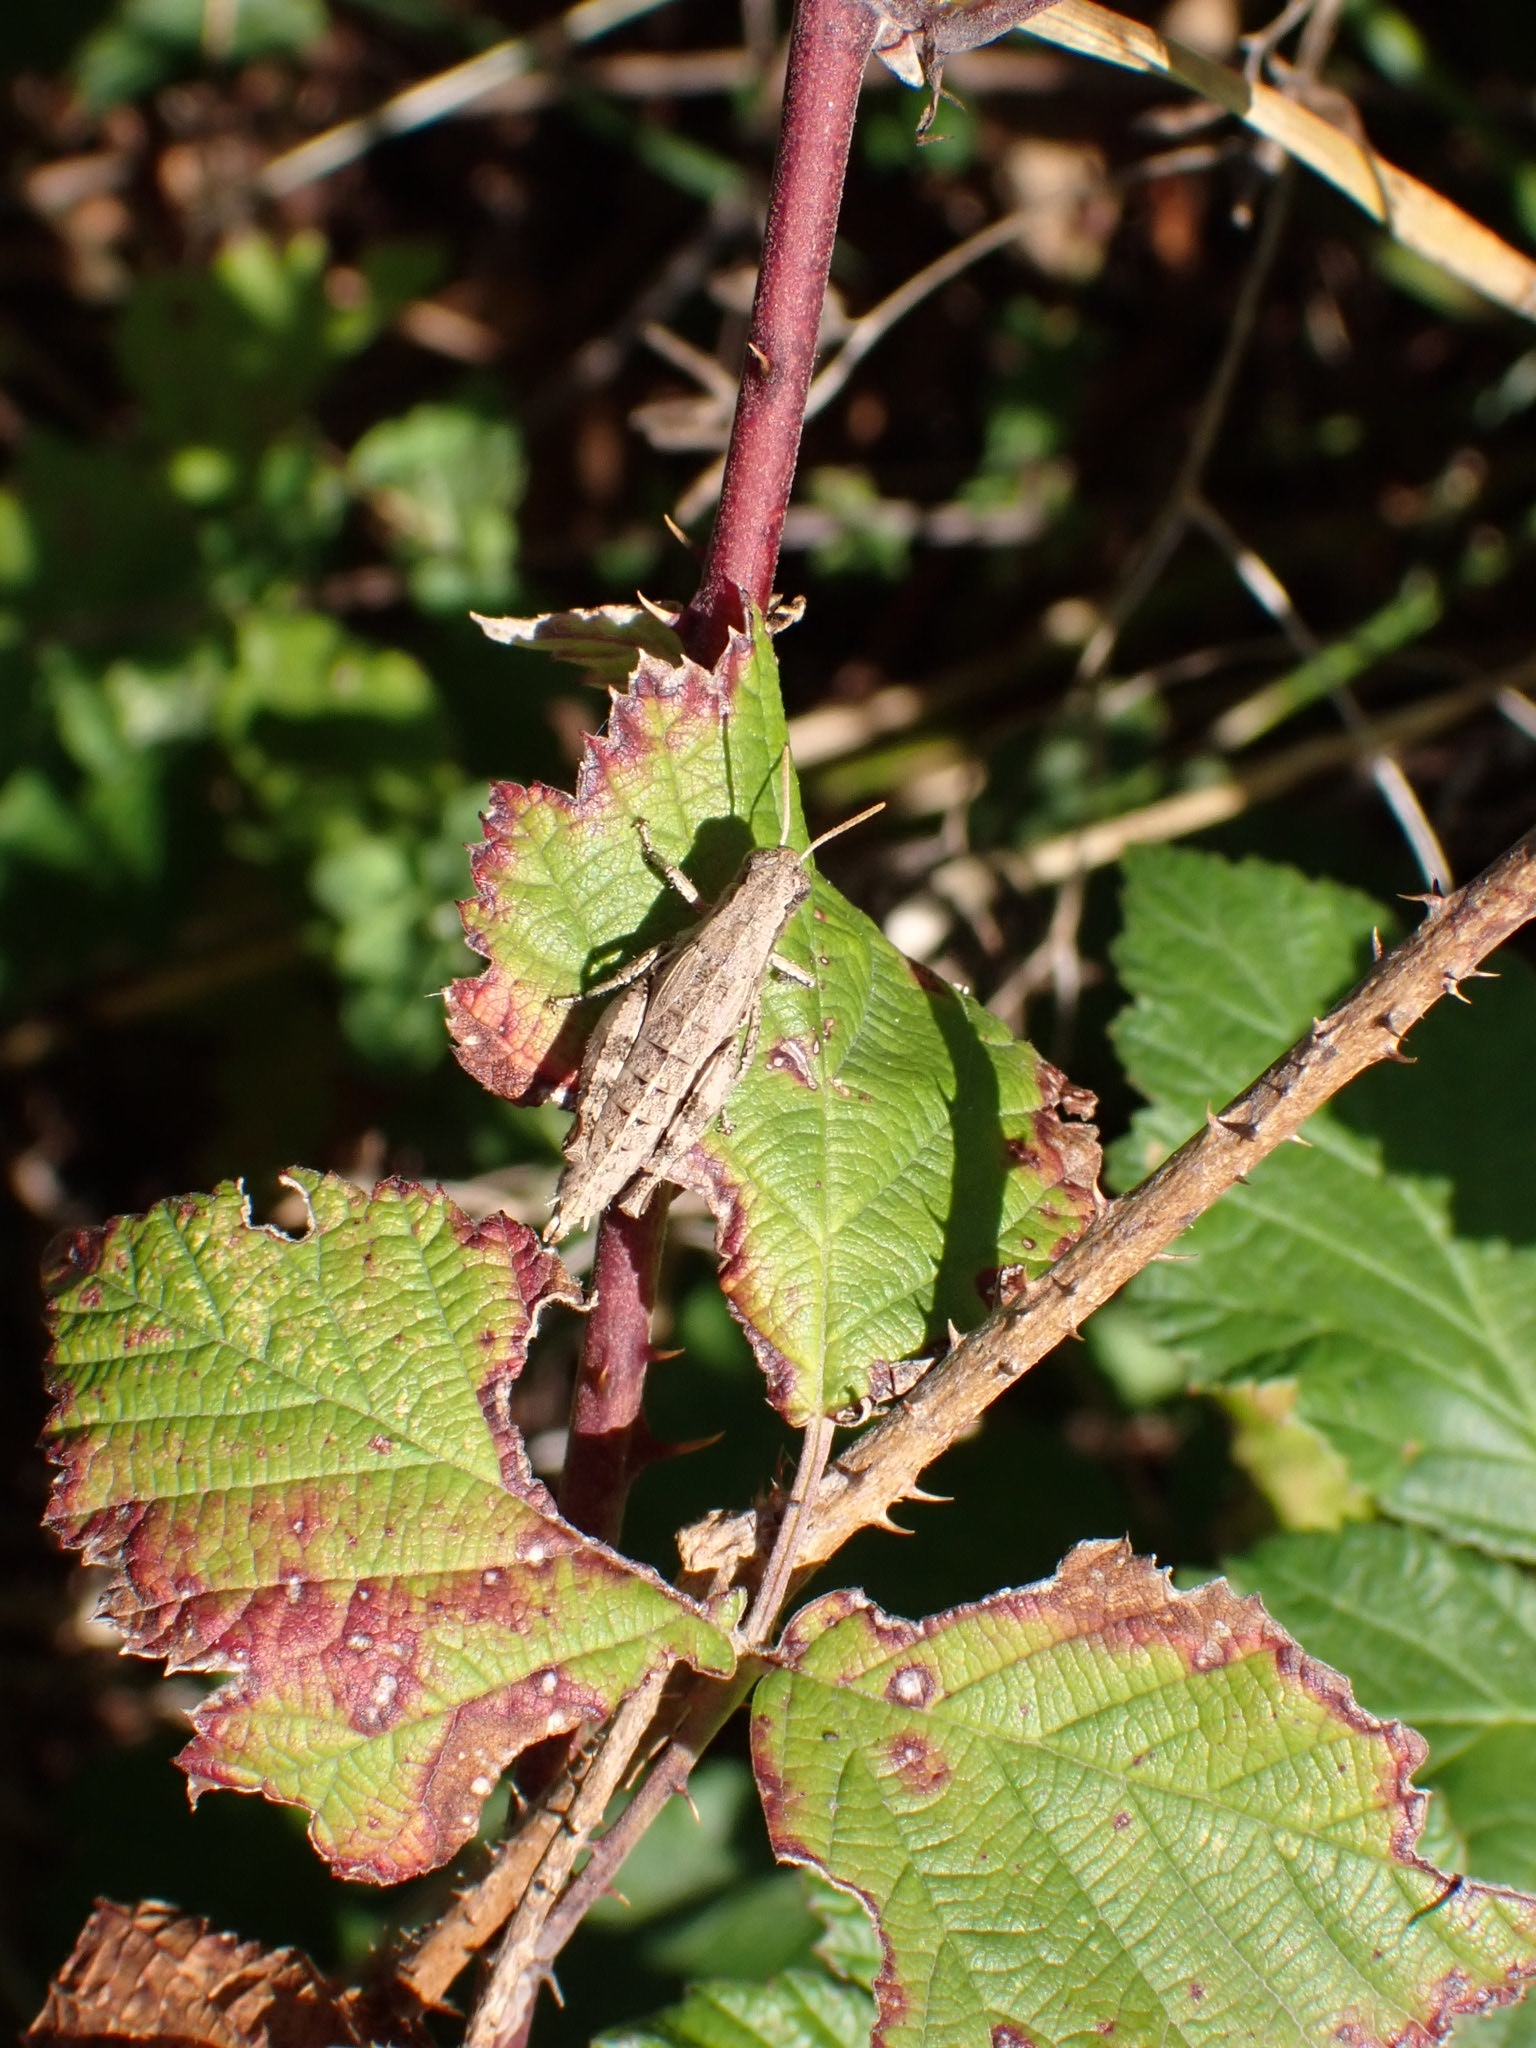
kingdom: Animalia
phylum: Arthropoda
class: Insecta
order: Orthoptera
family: Acrididae
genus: Pezotettix
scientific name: Pezotettix giornae
